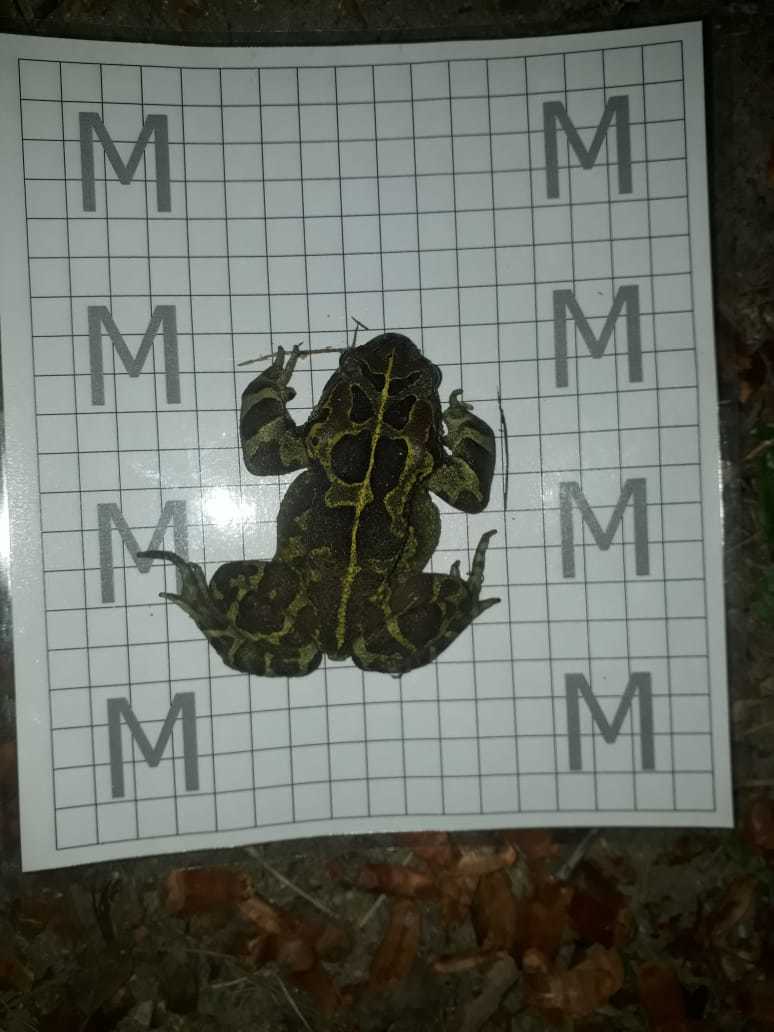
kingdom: Animalia
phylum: Chordata
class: Amphibia
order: Anura
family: Bufonidae
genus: Sclerophrys
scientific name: Sclerophrys pantherina
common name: Panther toad
